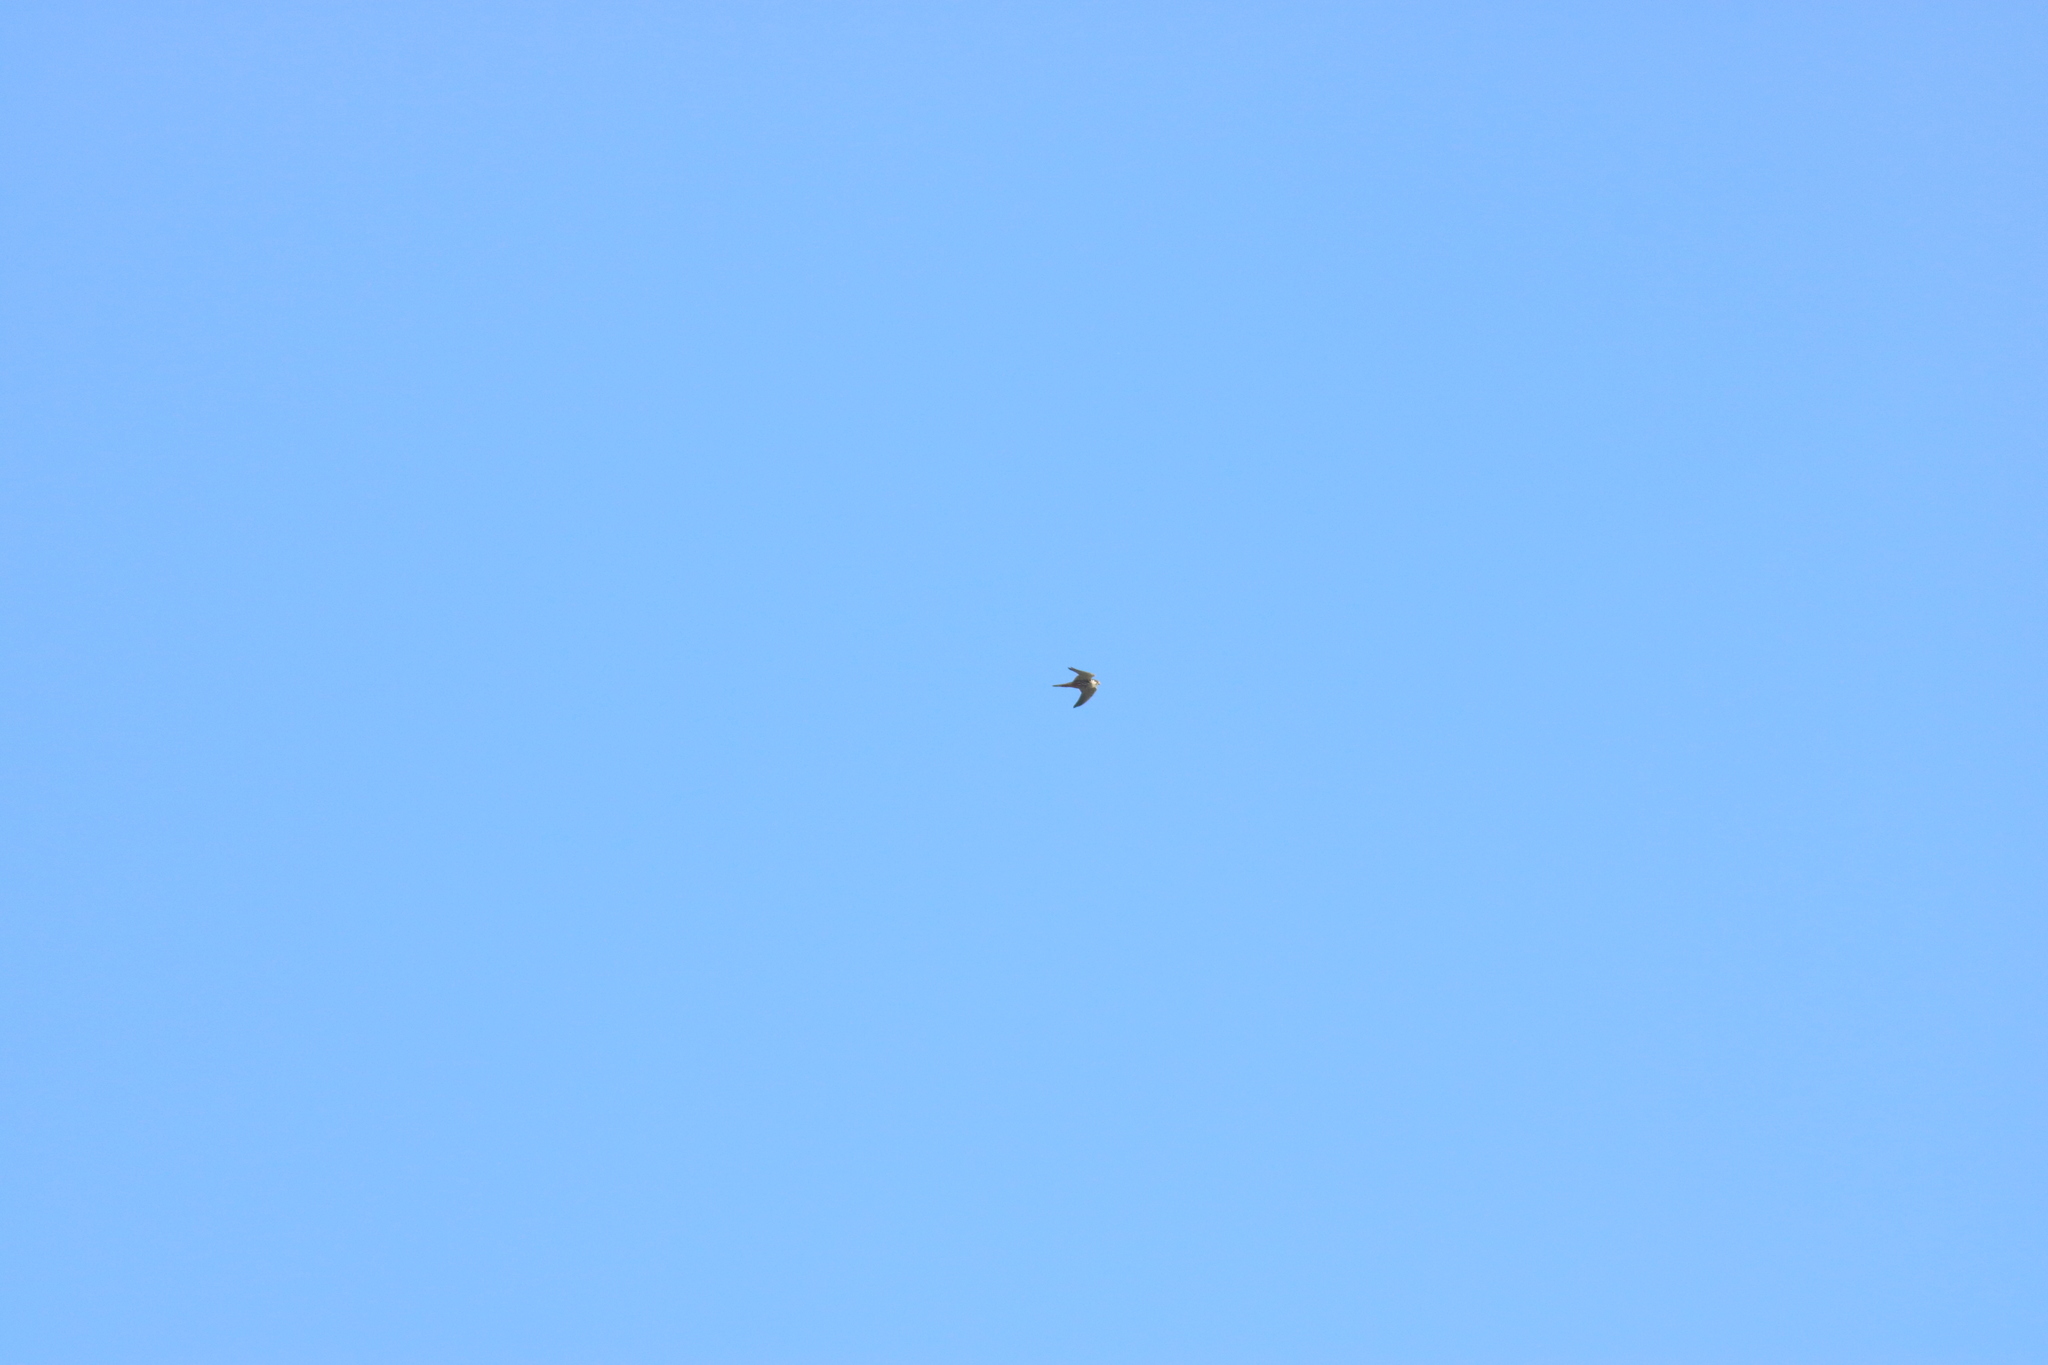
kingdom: Animalia
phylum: Chordata
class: Aves
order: Falconiformes
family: Falconidae
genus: Falco
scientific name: Falco subbuteo
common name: Eurasian hobby
